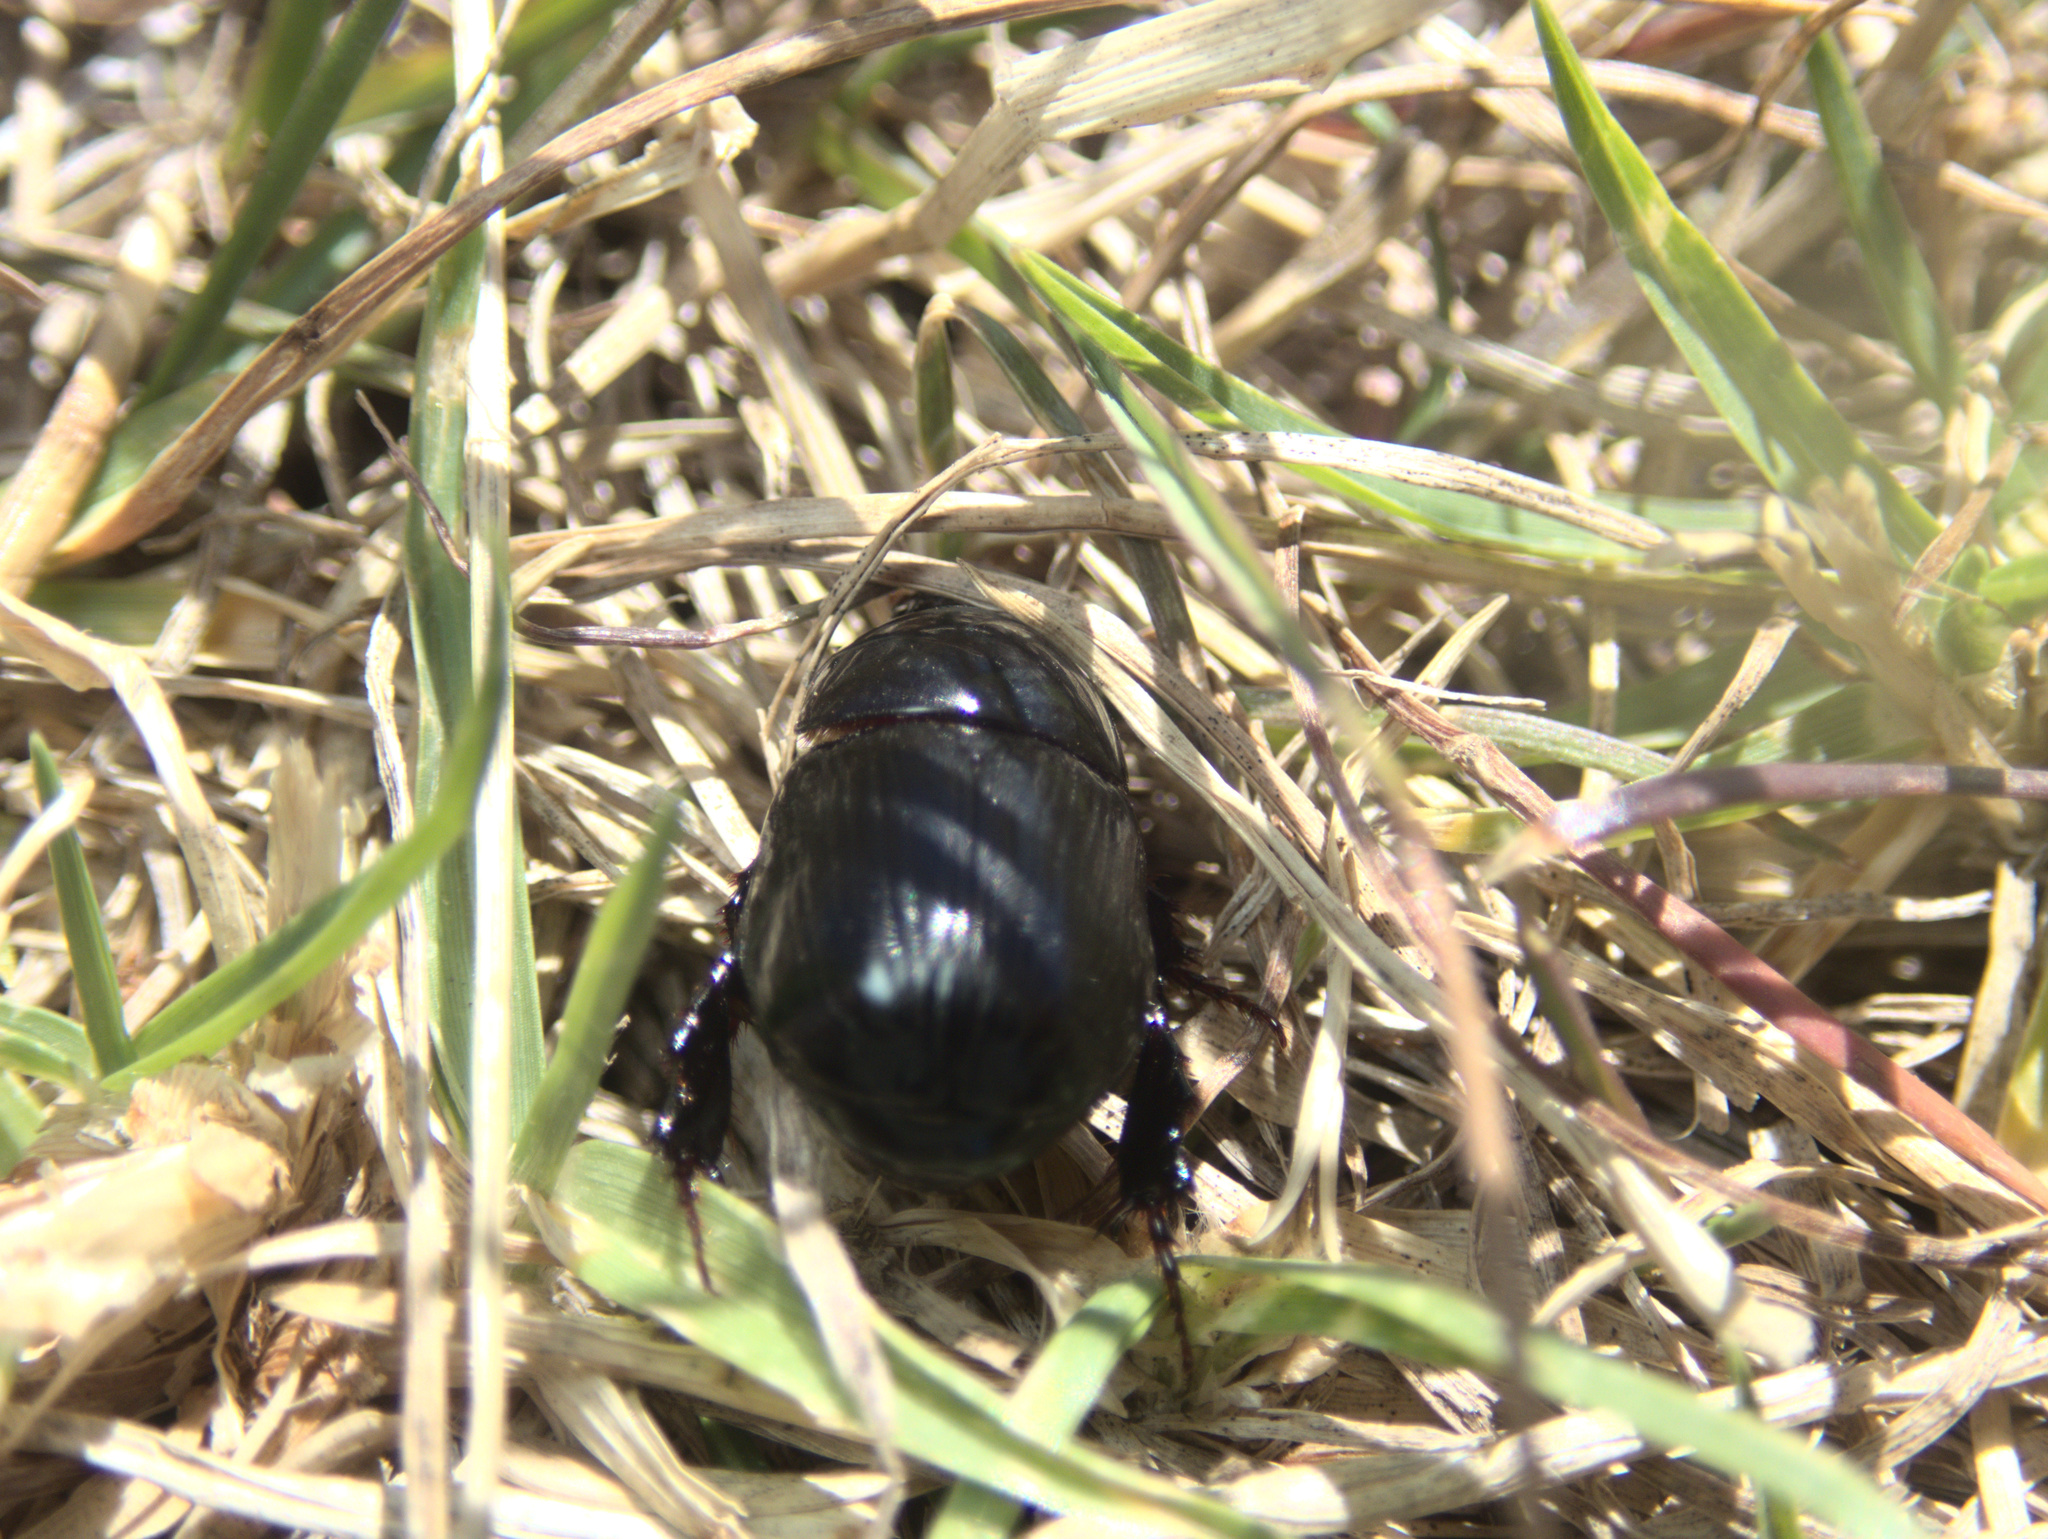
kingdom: Animalia
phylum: Arthropoda
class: Insecta
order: Coleoptera
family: Scarabaeidae
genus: Heteronychus
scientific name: Heteronychus arator
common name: African black beetle
